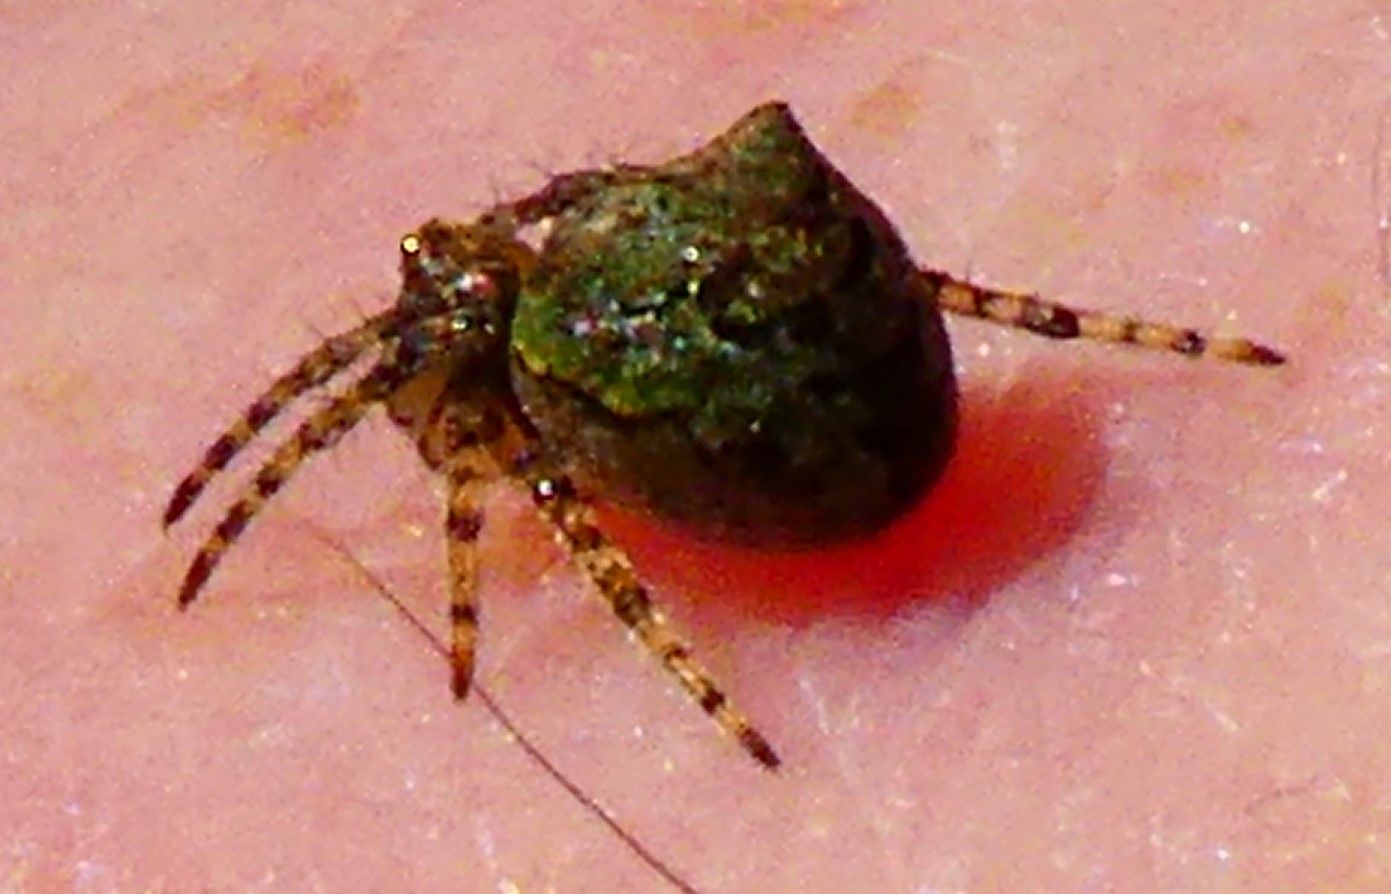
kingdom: Animalia
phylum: Arthropoda
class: Arachnida
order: Araneae
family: Araneidae
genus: Gibbaranea
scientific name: Gibbaranea gibbosa
